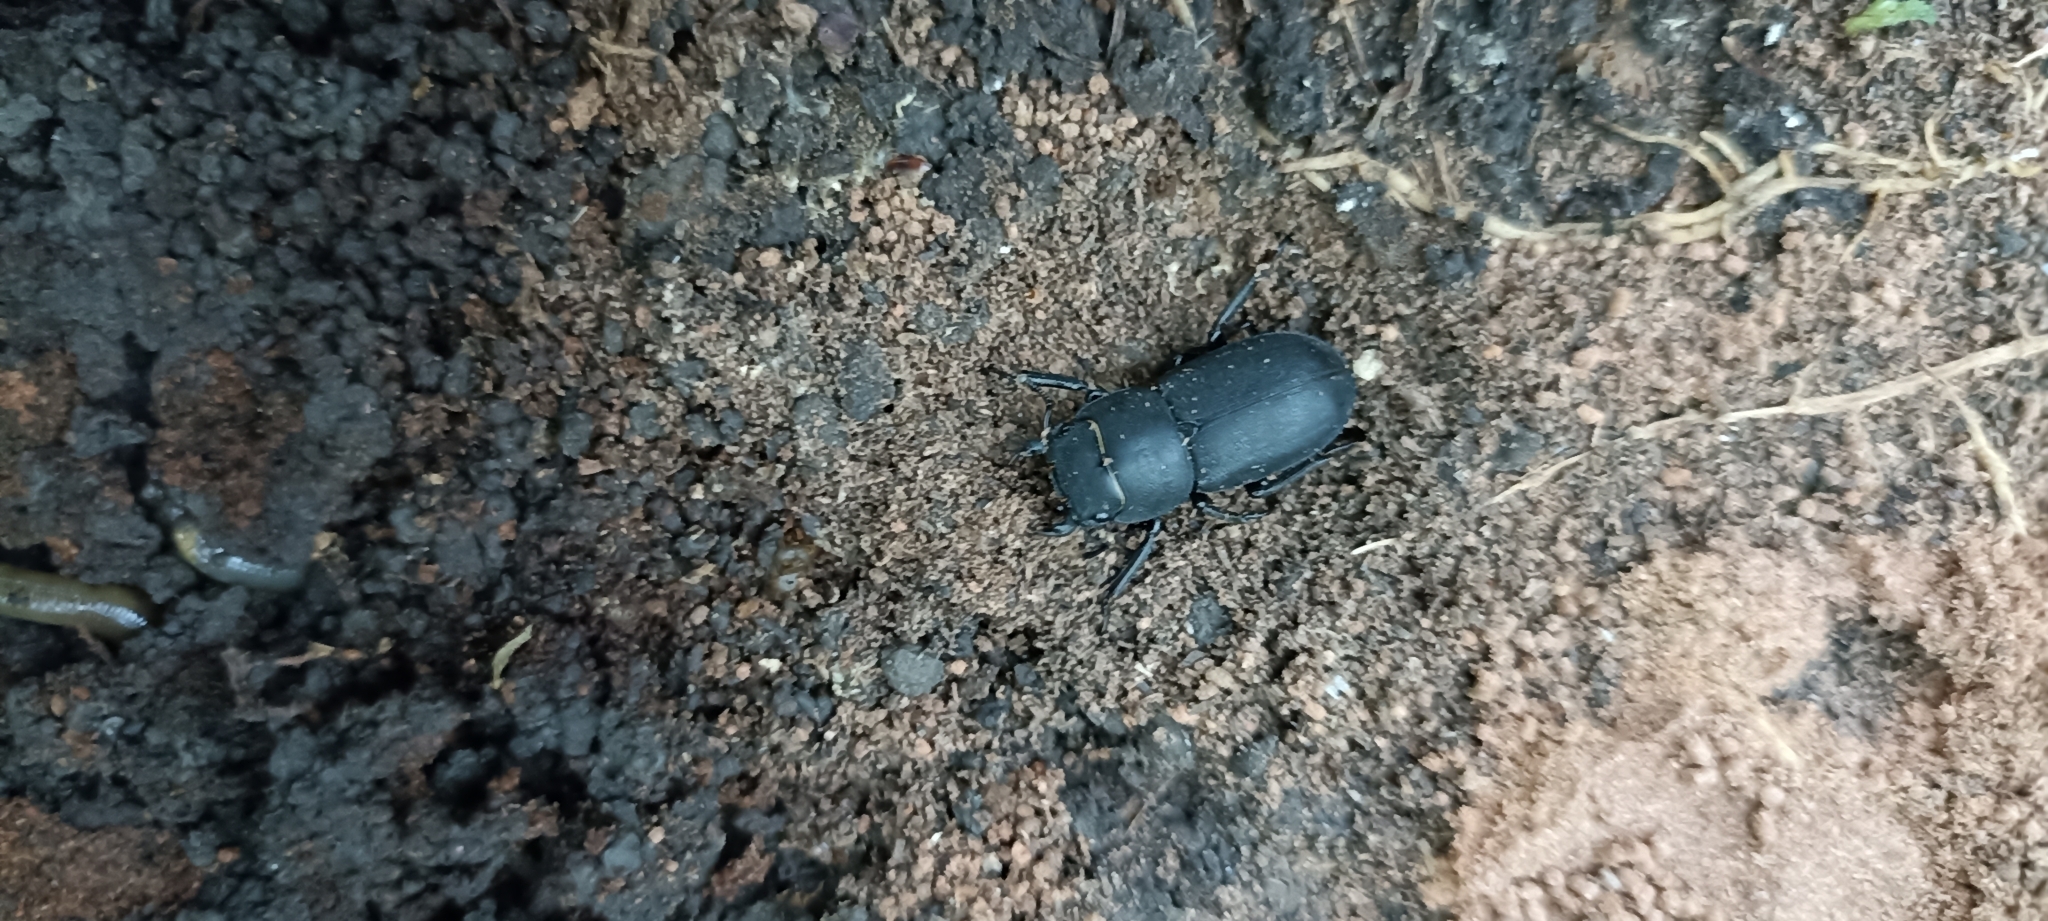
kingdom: Animalia
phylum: Arthropoda
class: Insecta
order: Coleoptera
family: Lucanidae
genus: Dorcus
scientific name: Dorcus parallelipipedus
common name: Lesser stag beetle
